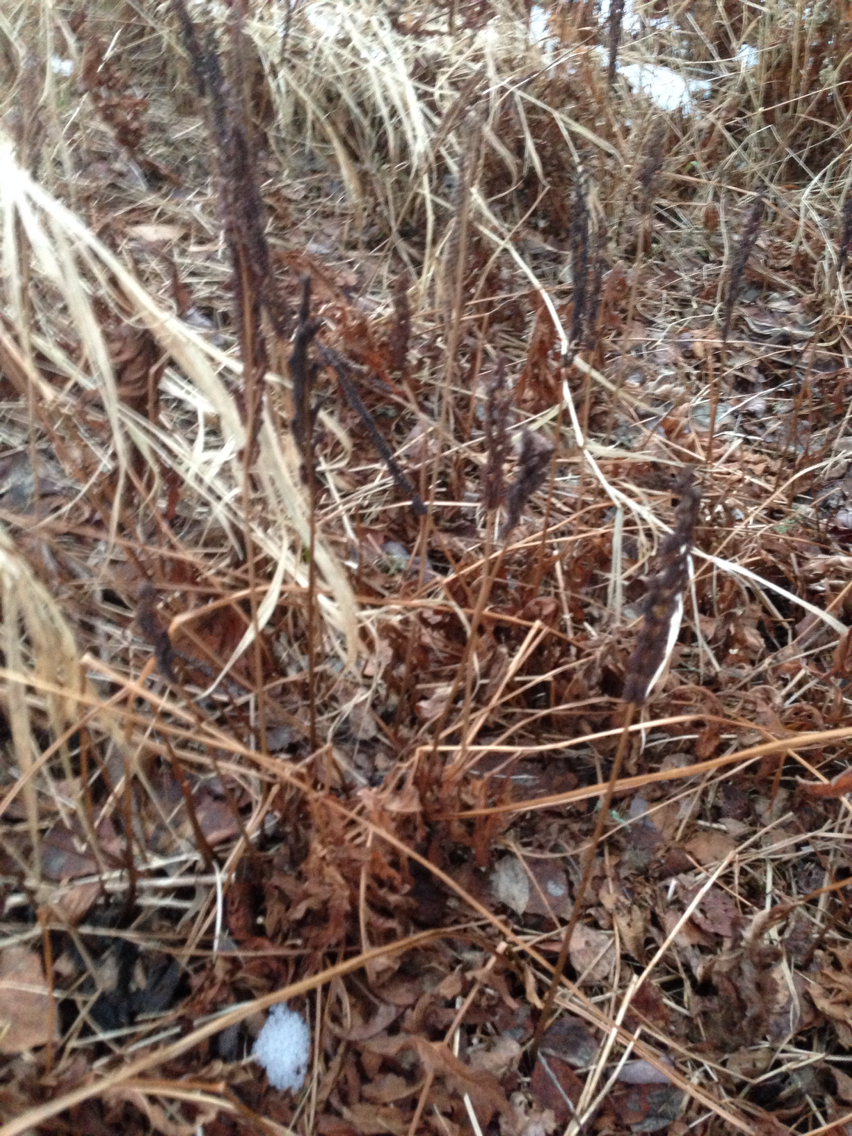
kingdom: Plantae
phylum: Tracheophyta
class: Polypodiopsida
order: Polypodiales
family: Onocleaceae
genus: Onoclea
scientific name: Onoclea sensibilis
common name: Sensitive fern
